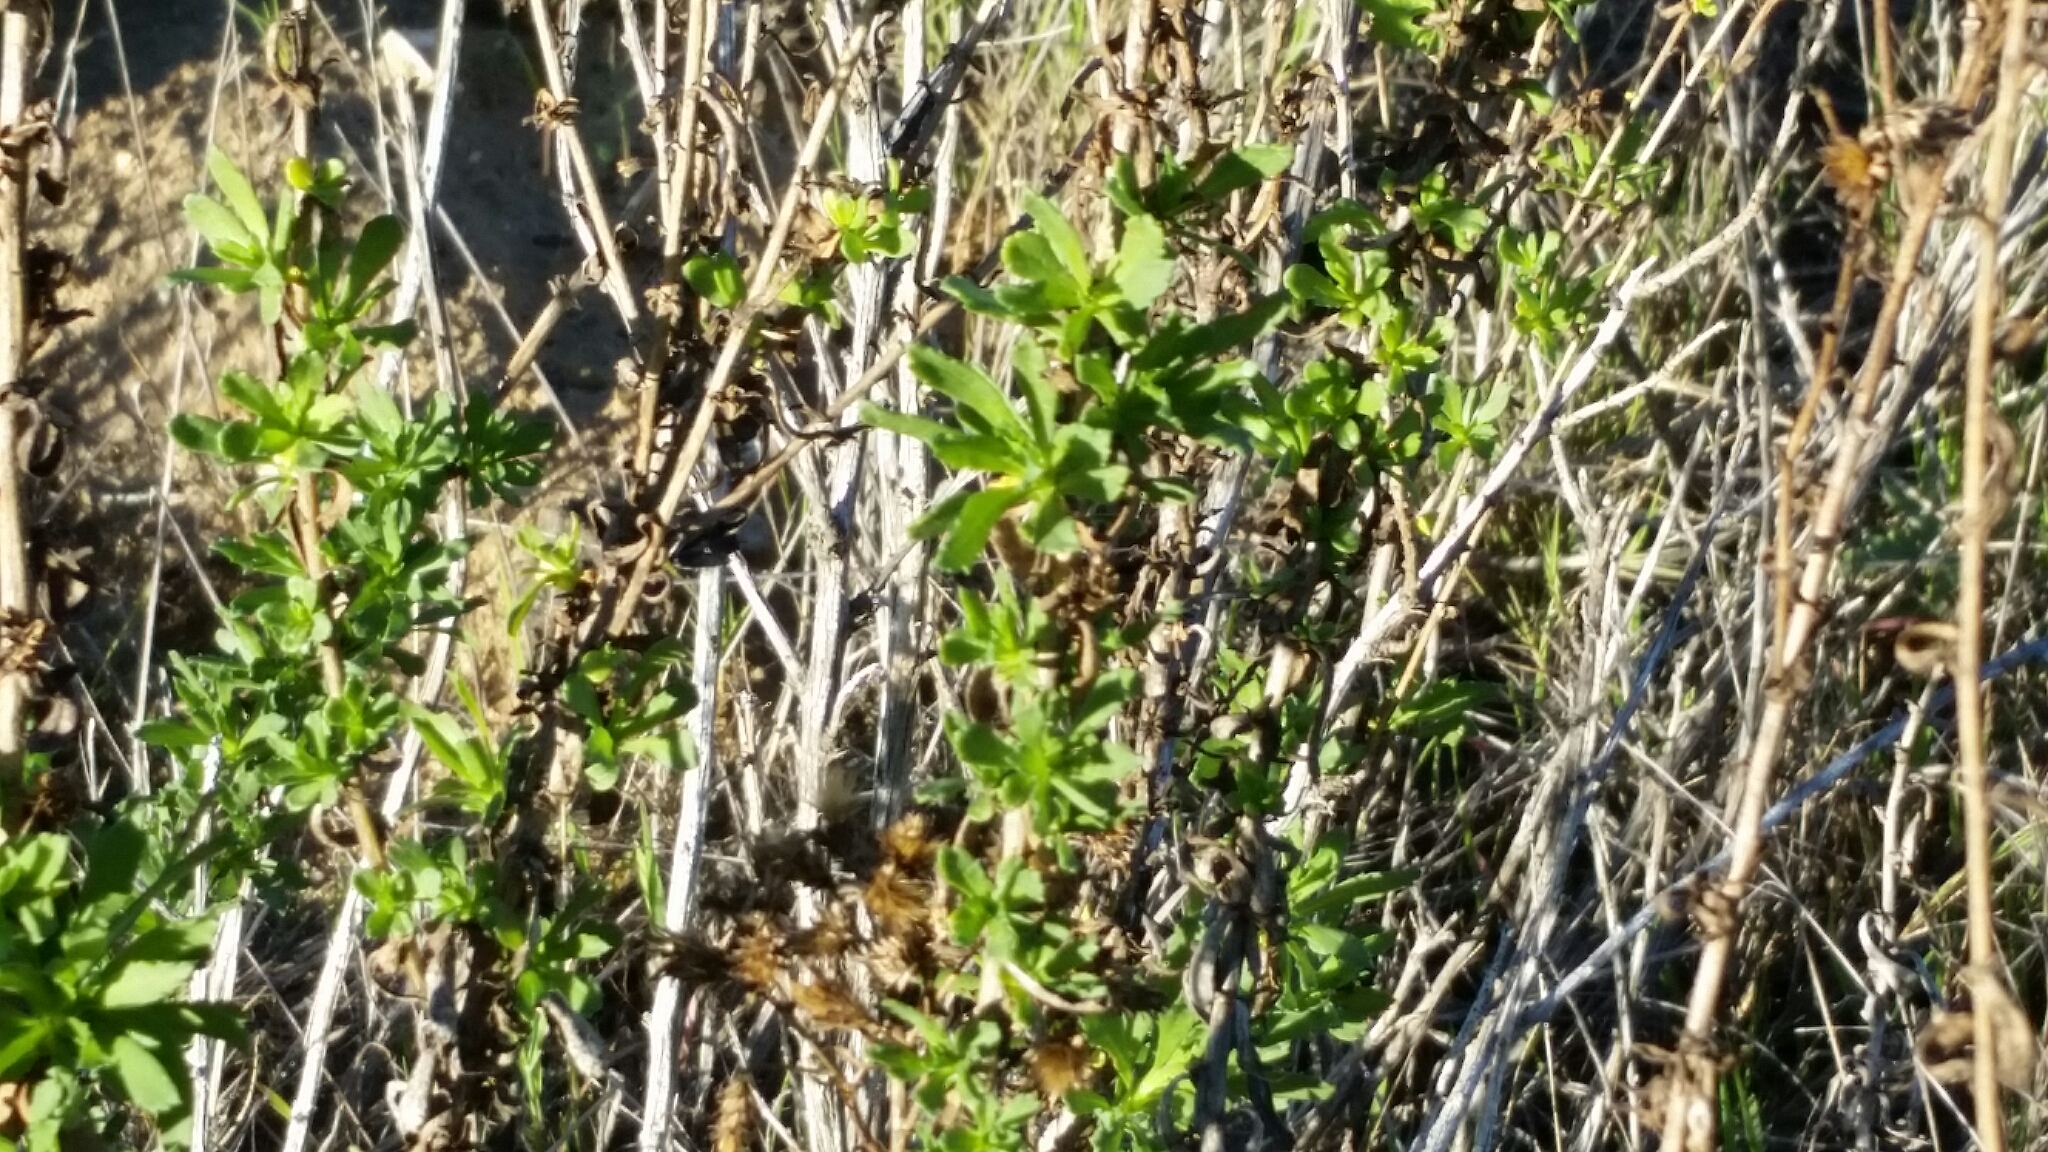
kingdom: Plantae
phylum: Tracheophyta
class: Magnoliopsida
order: Asterales
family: Asteraceae
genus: Isocoma
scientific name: Isocoma menziesii
